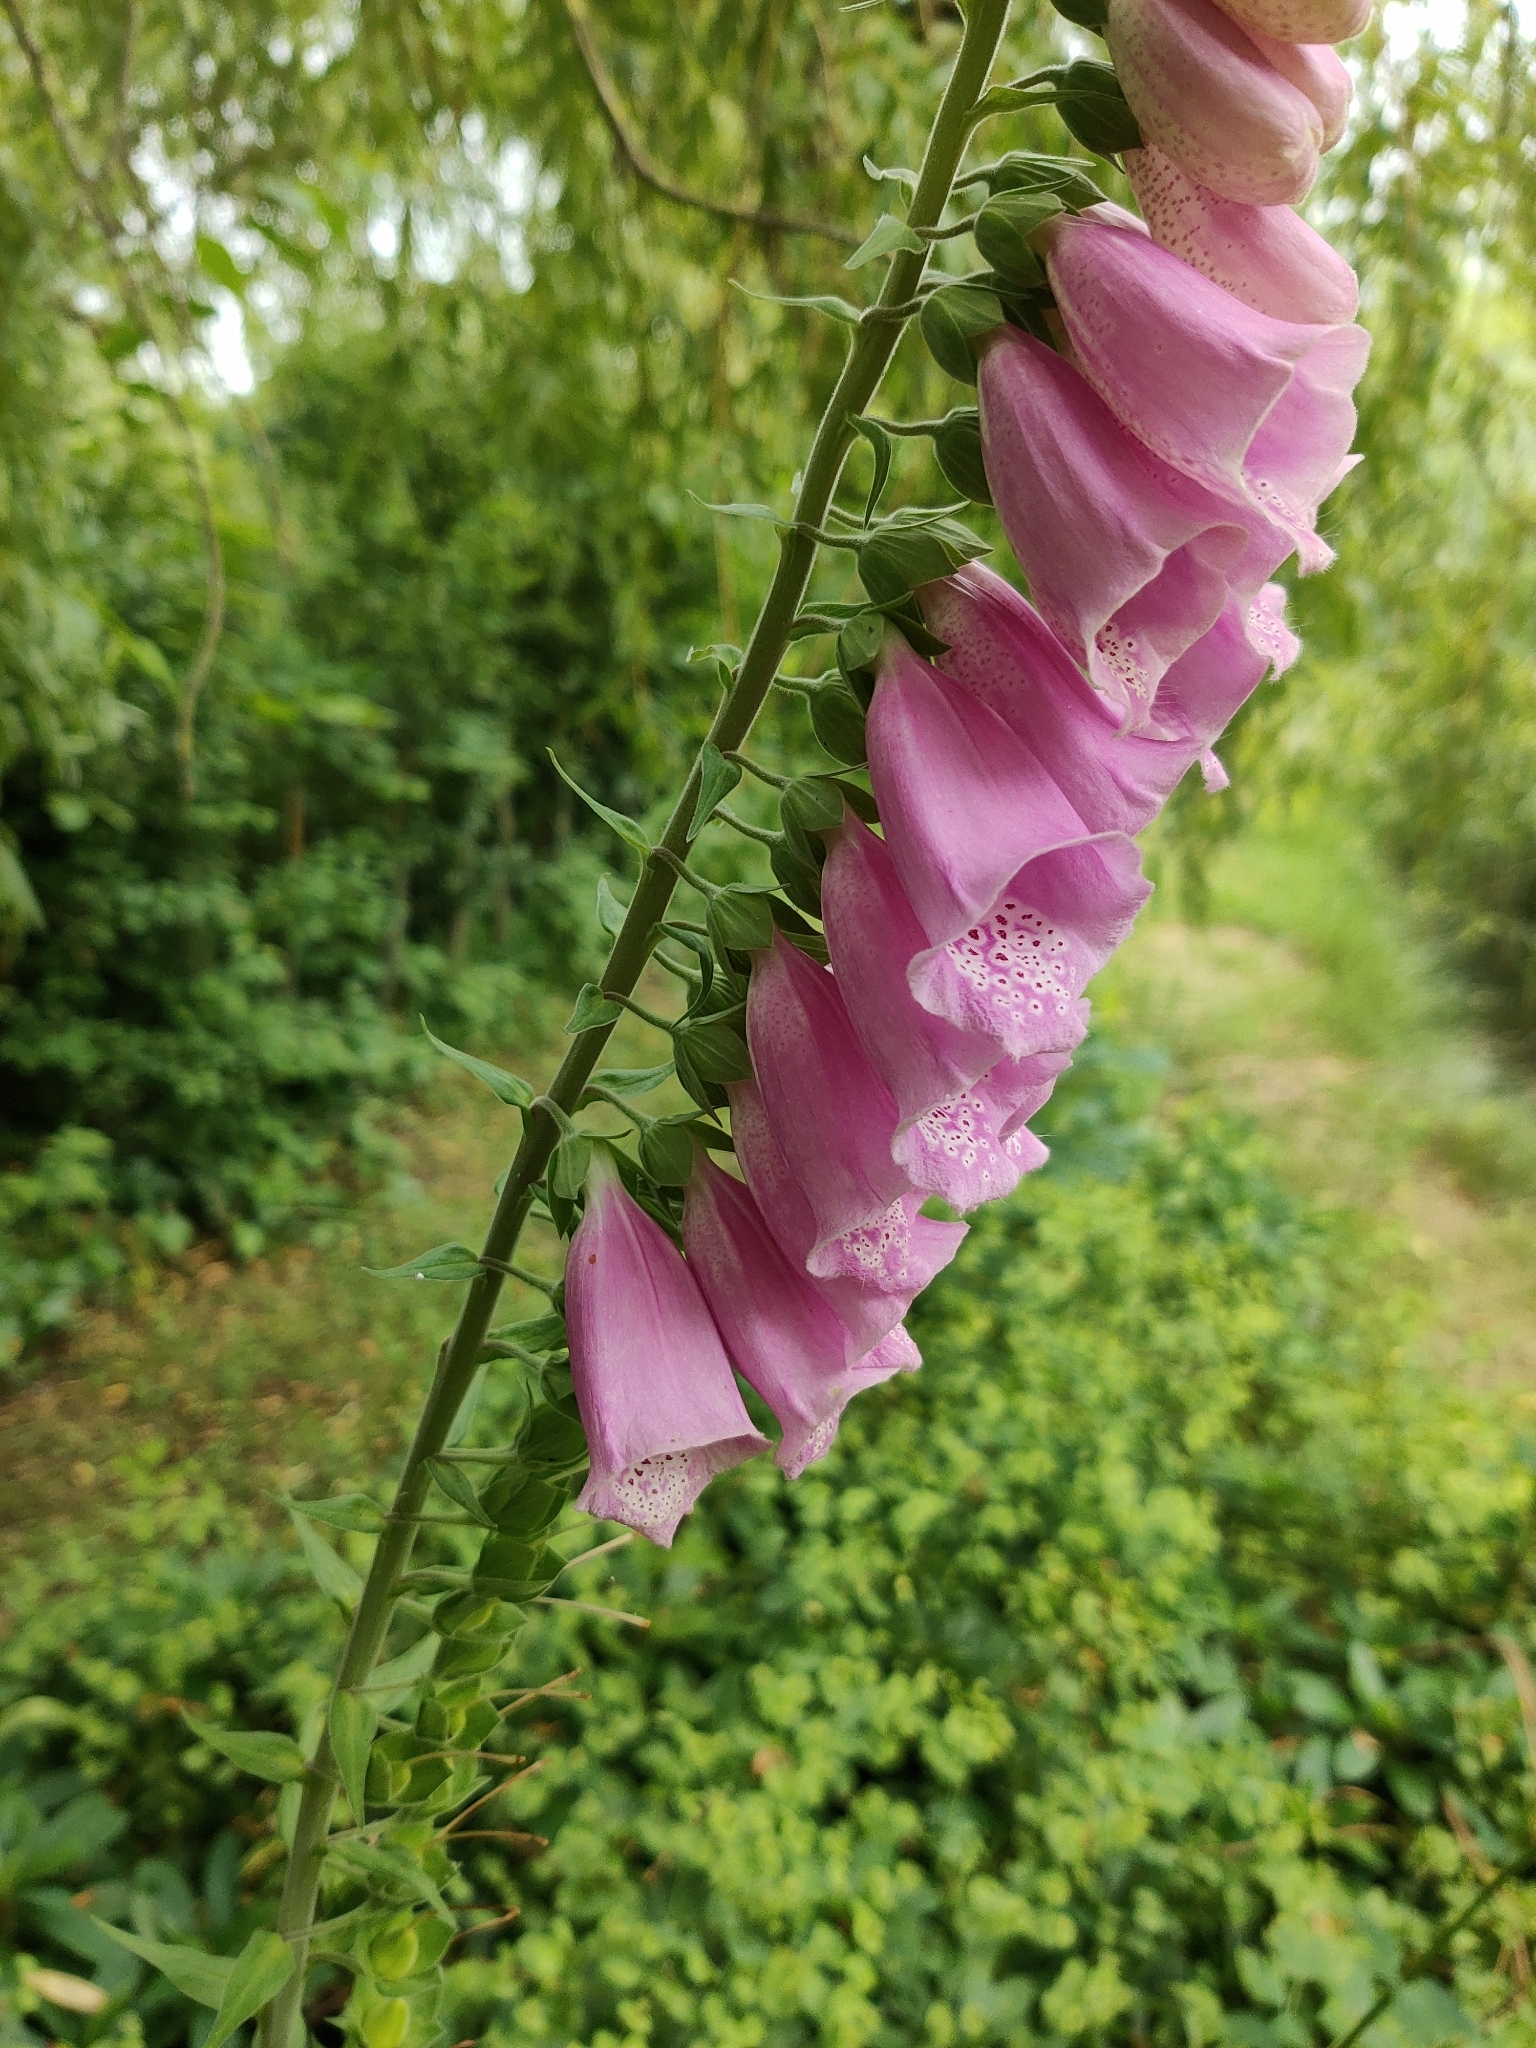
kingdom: Plantae
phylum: Tracheophyta
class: Magnoliopsida
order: Lamiales
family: Plantaginaceae
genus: Digitalis
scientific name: Digitalis purpurea
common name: Foxglove
